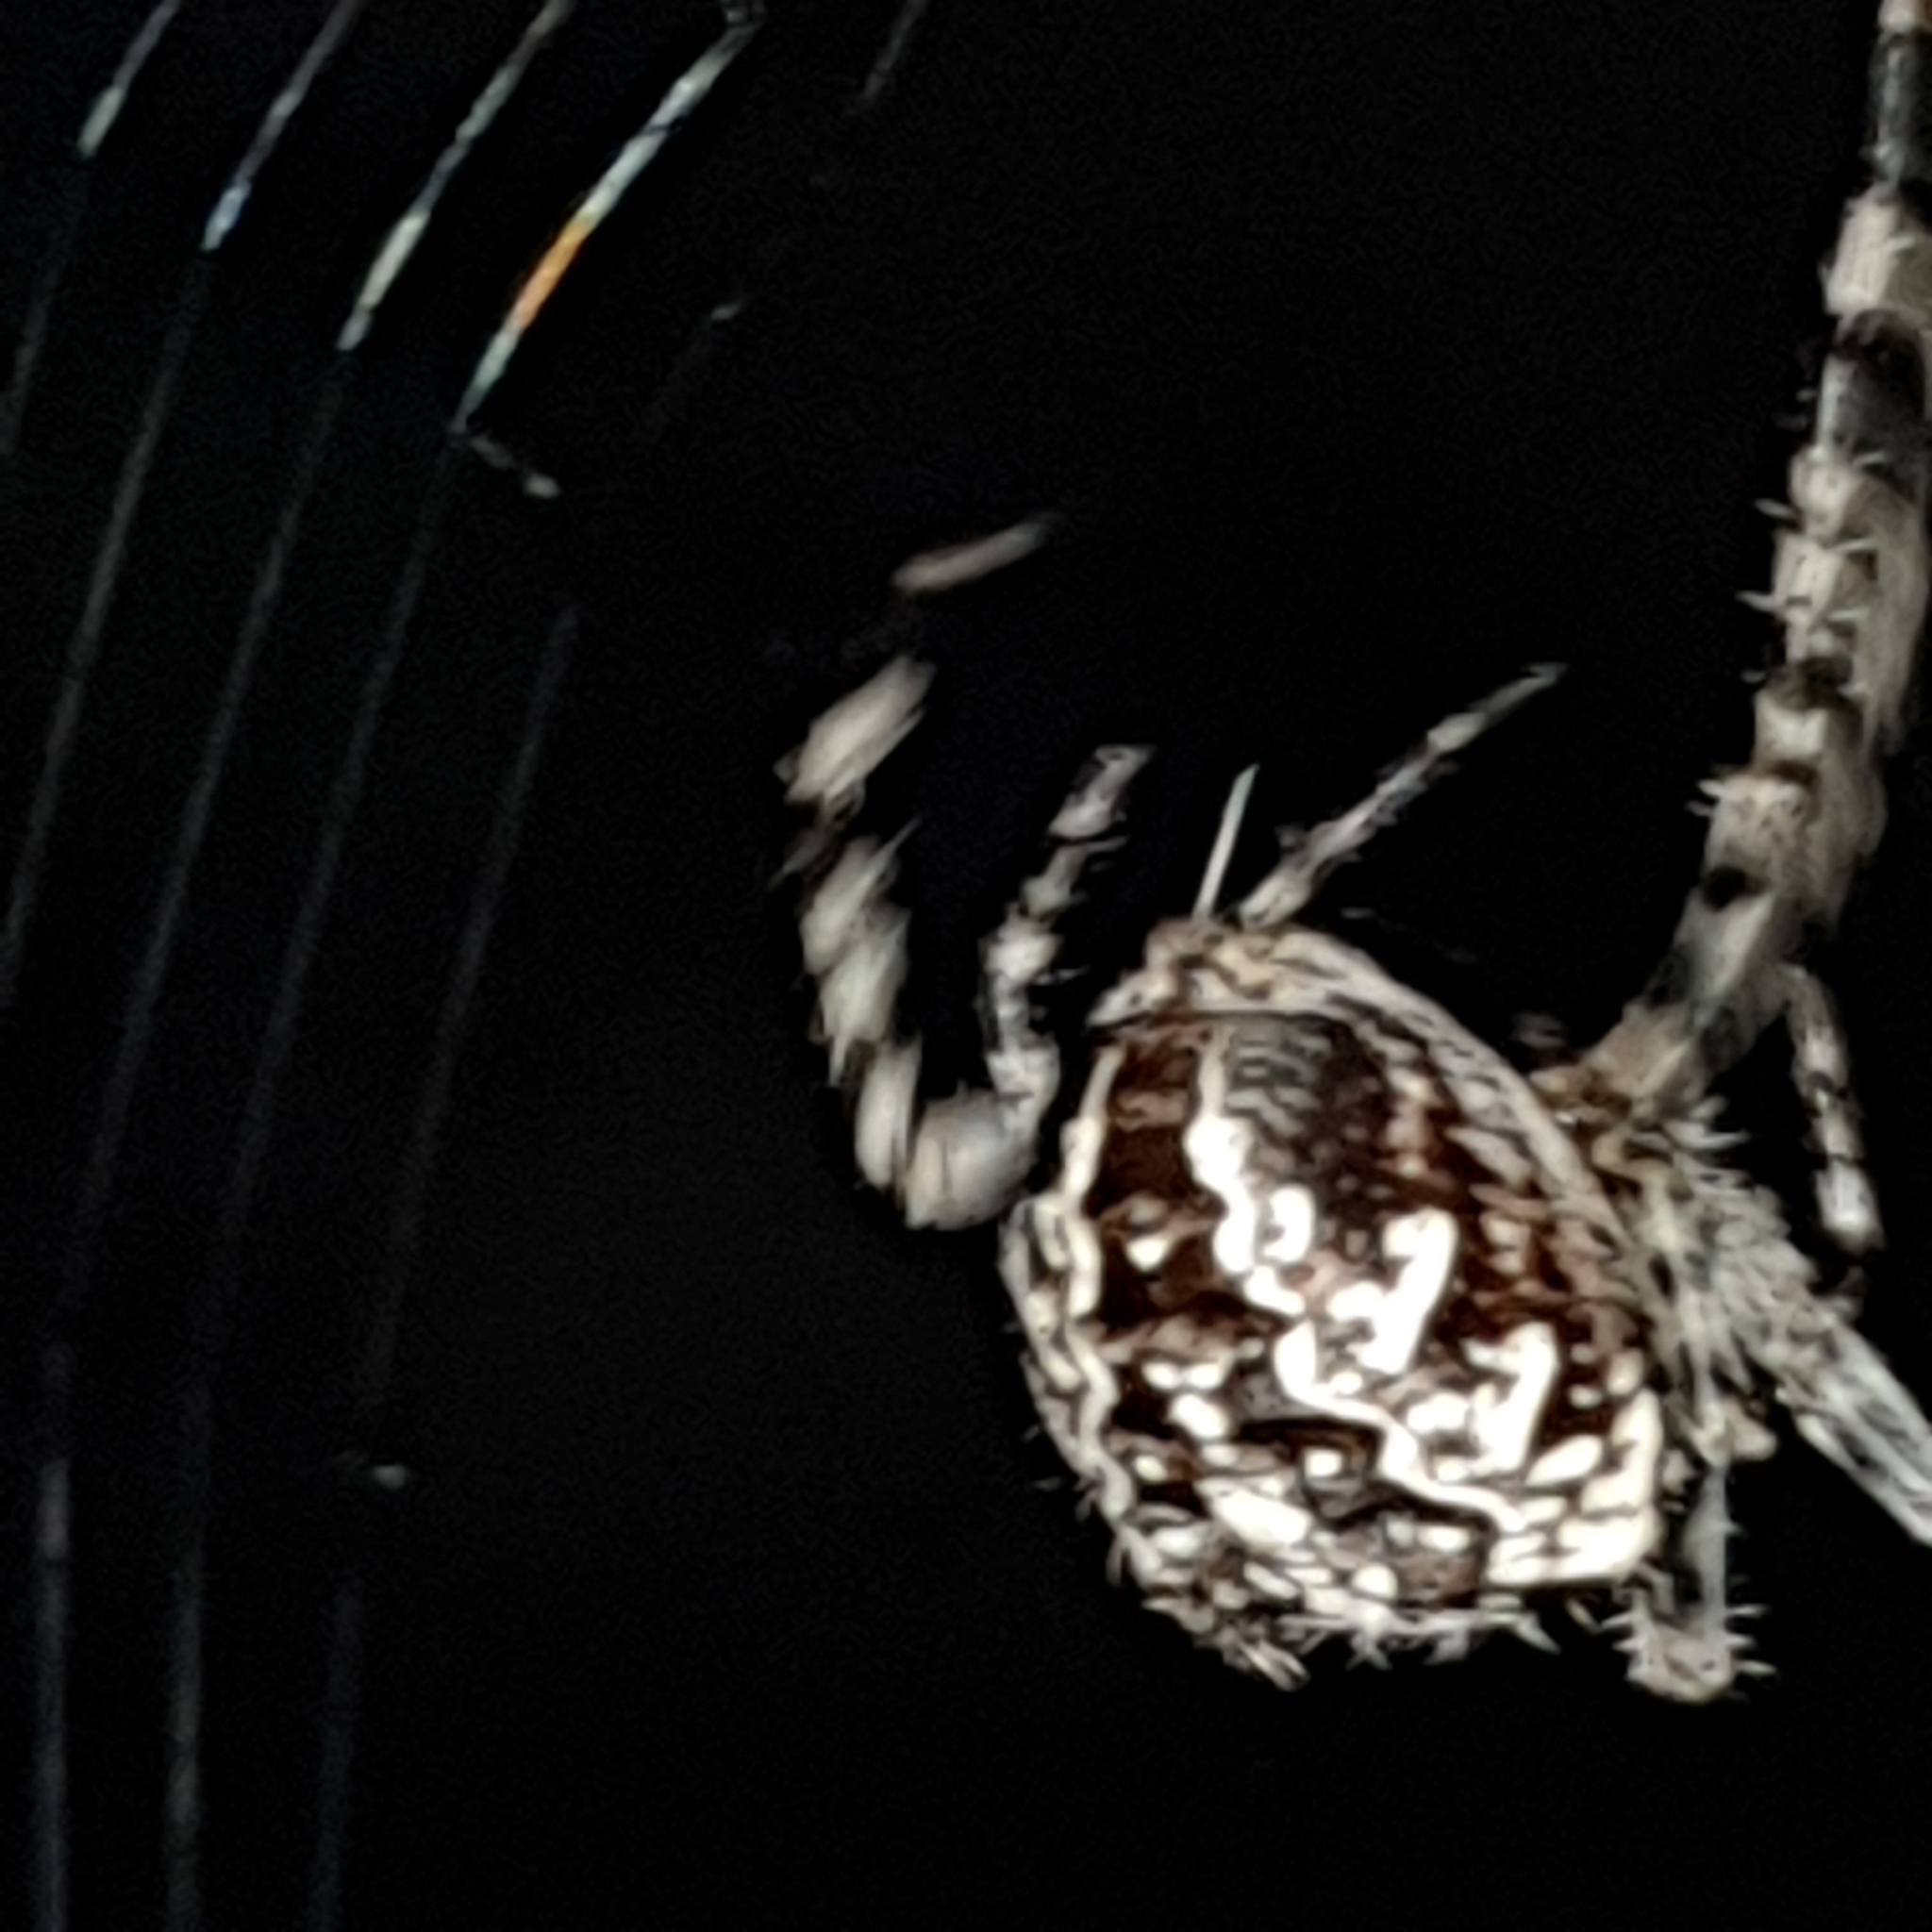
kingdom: Animalia
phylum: Arthropoda
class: Arachnida
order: Araneae
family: Araneidae
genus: Araneus
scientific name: Araneus diadematus
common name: Cross orbweaver
